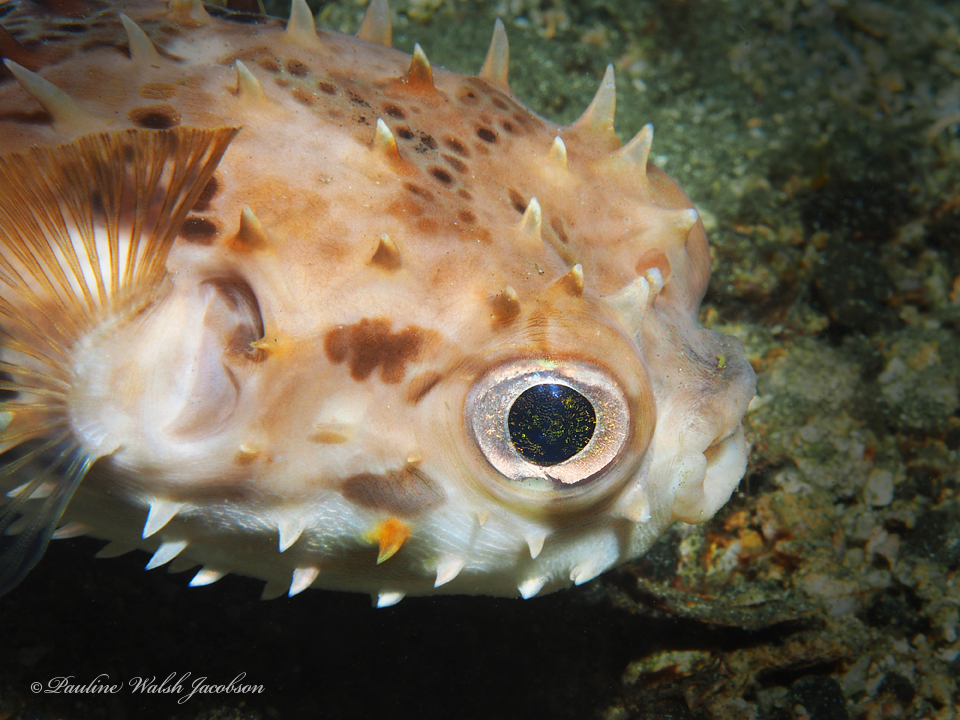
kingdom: Animalia
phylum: Chordata
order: Tetraodontiformes
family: Diodontidae
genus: Cyclichthys
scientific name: Cyclichthys orbicularis
